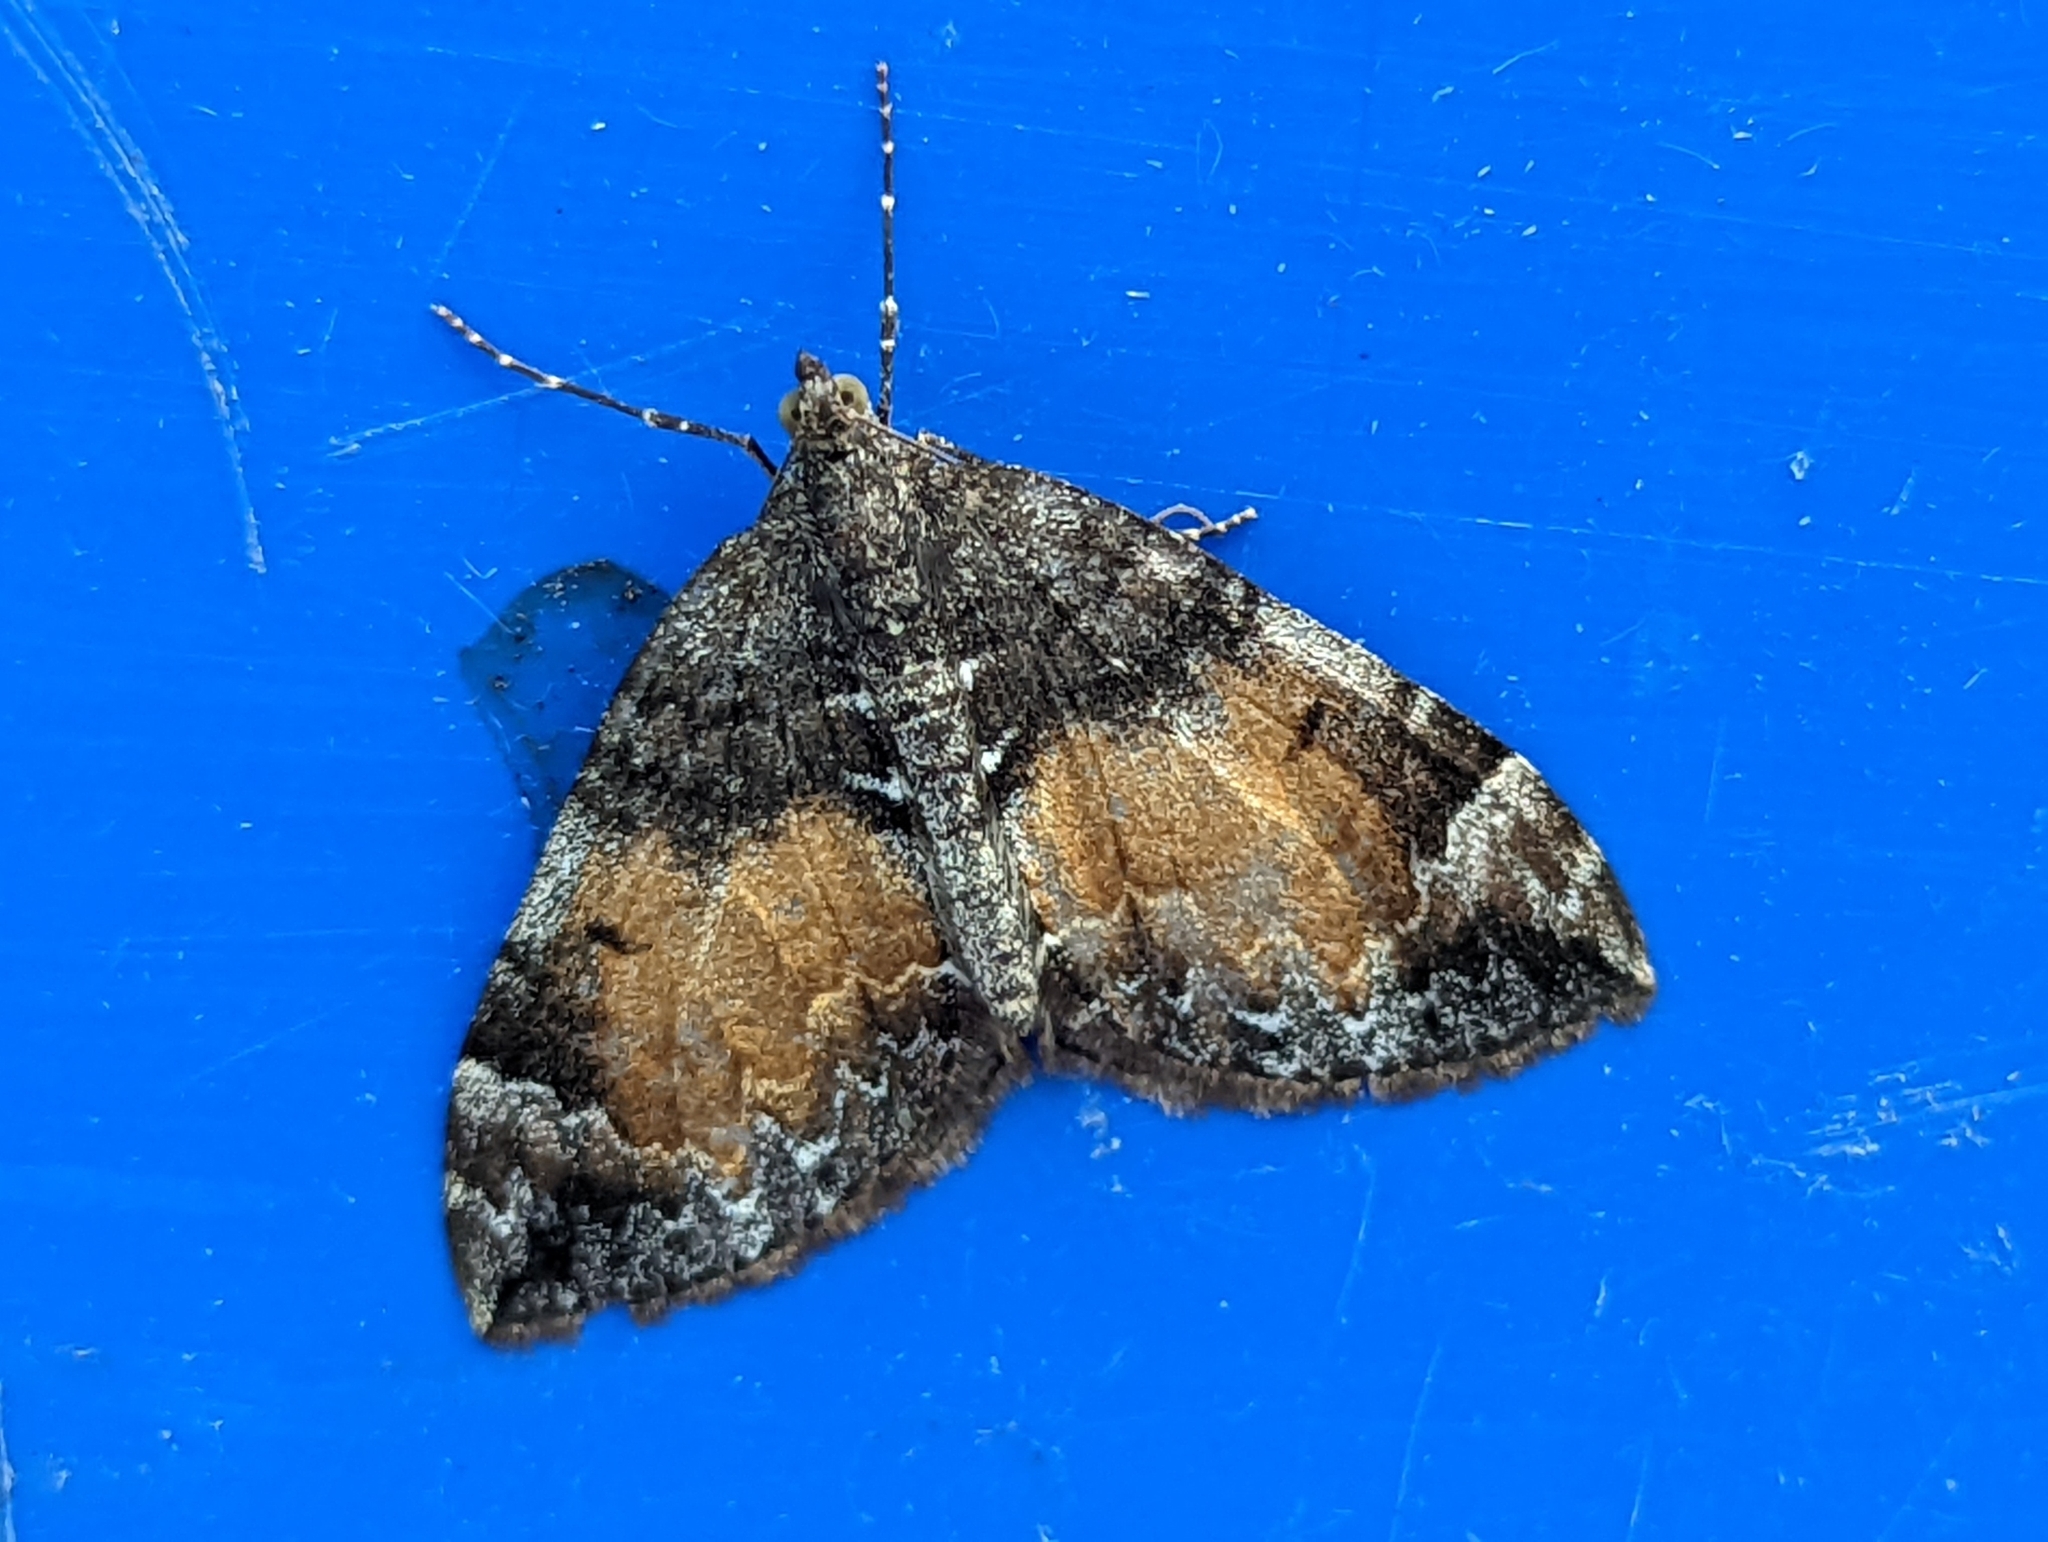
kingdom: Animalia
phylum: Arthropoda
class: Insecta
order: Lepidoptera
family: Geometridae
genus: Dysstroma
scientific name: Dysstroma truncata
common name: Common marbled carpet
